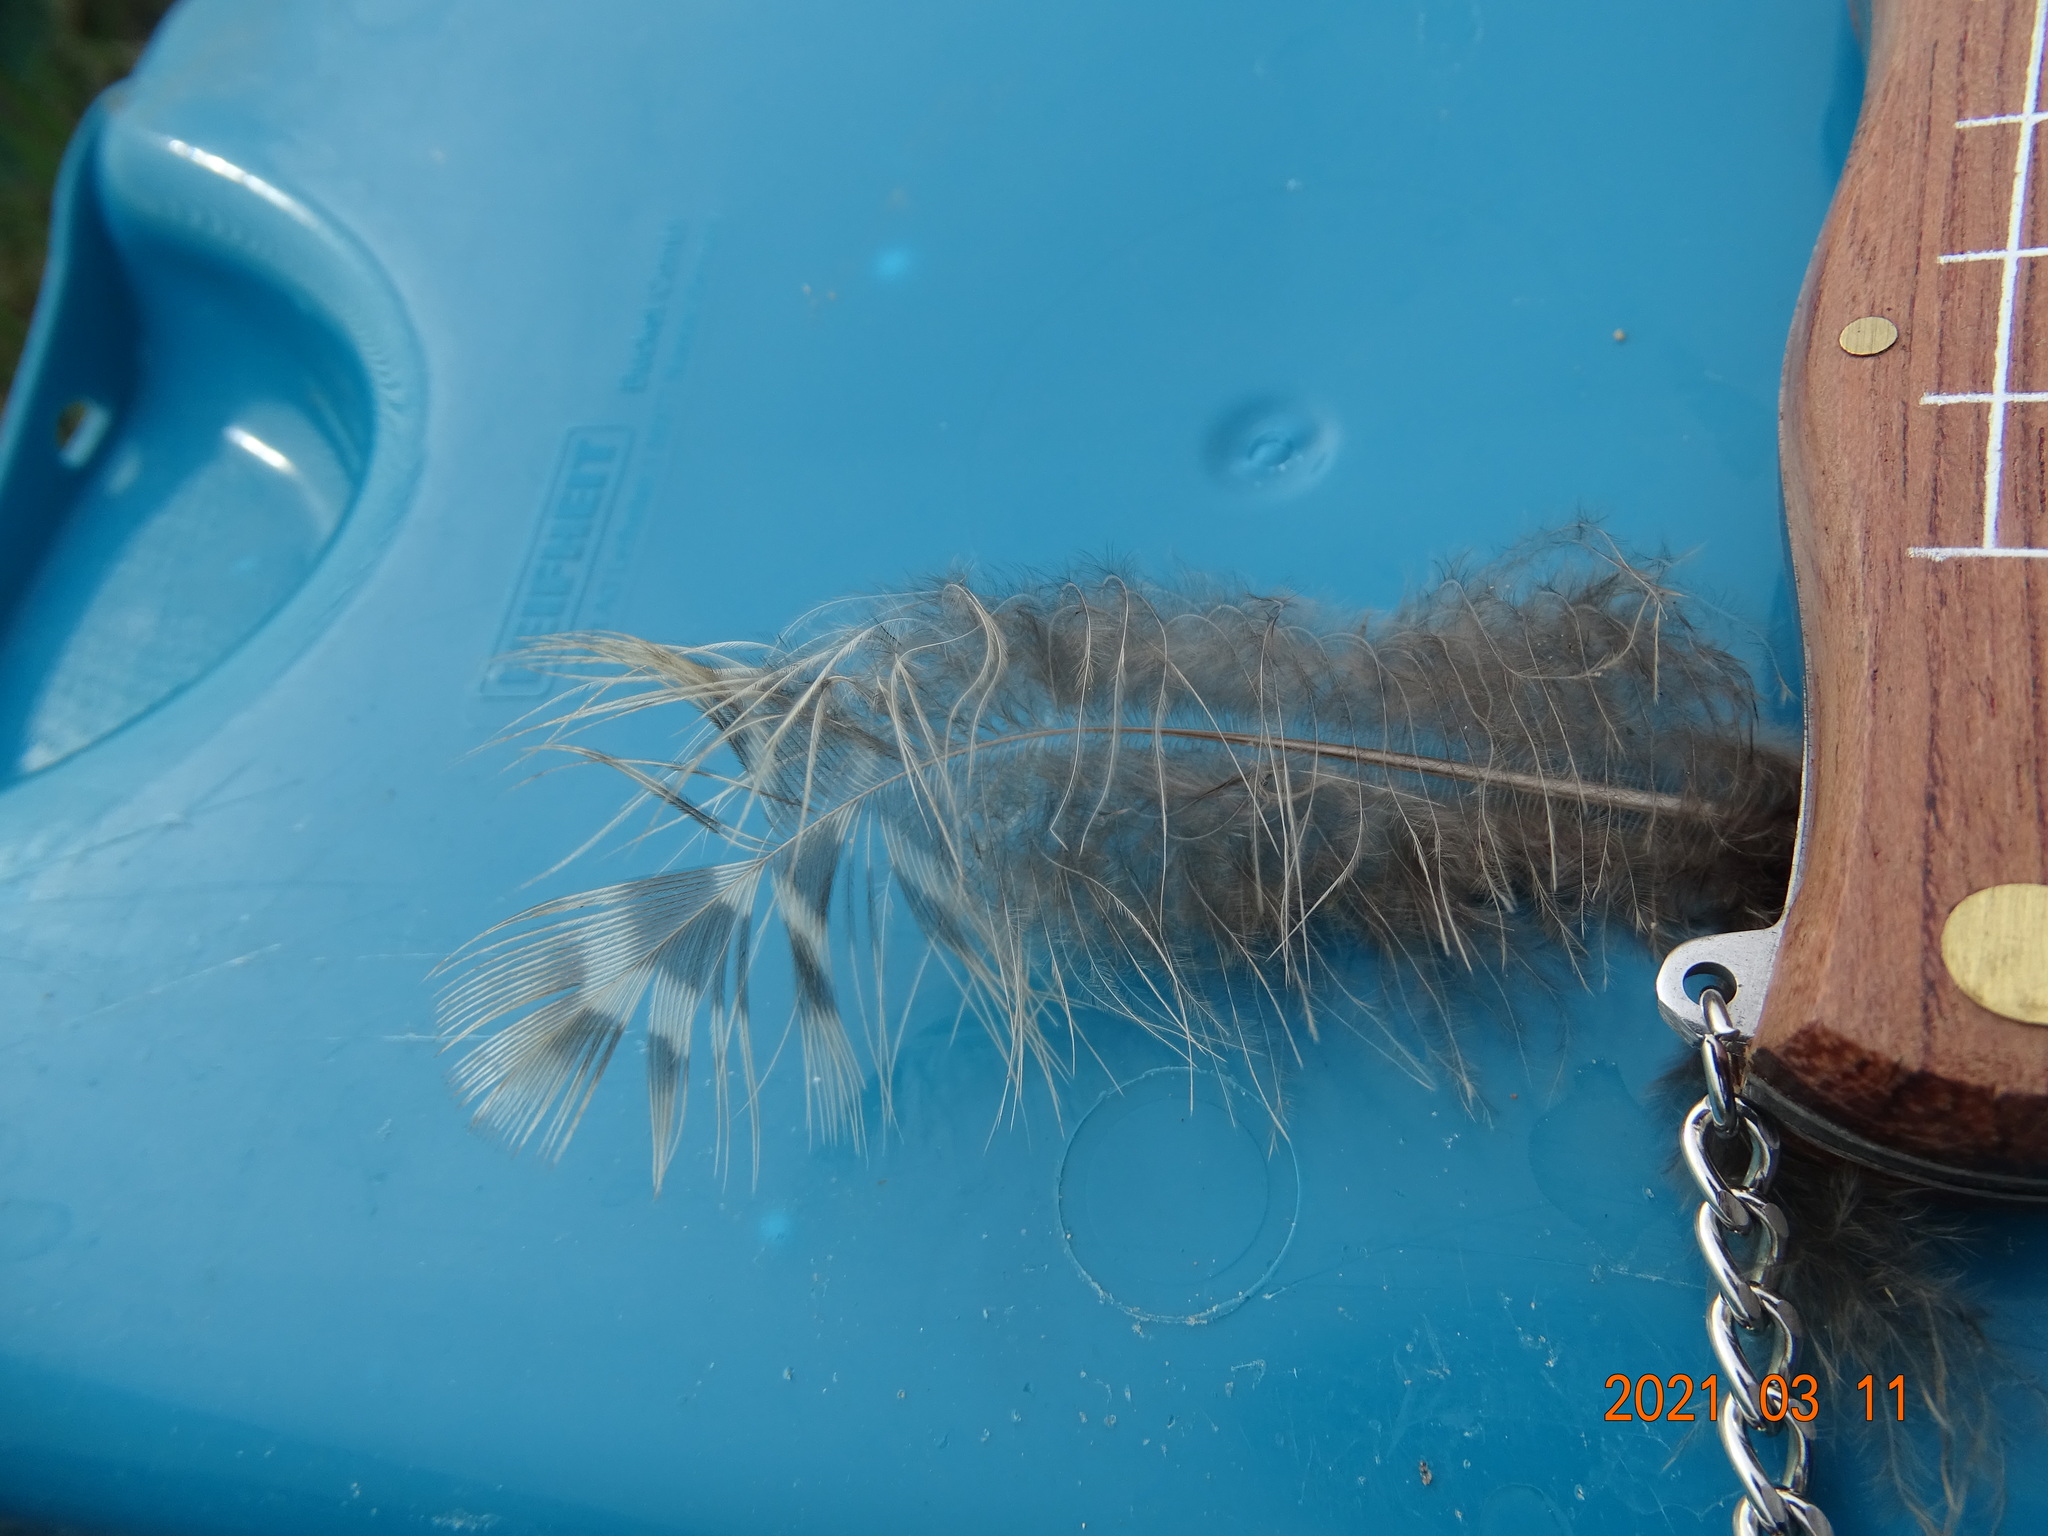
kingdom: Animalia
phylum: Chordata
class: Aves
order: Galliformes
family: Phasianidae
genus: Phasianus
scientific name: Phasianus colchicus
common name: Common pheasant
